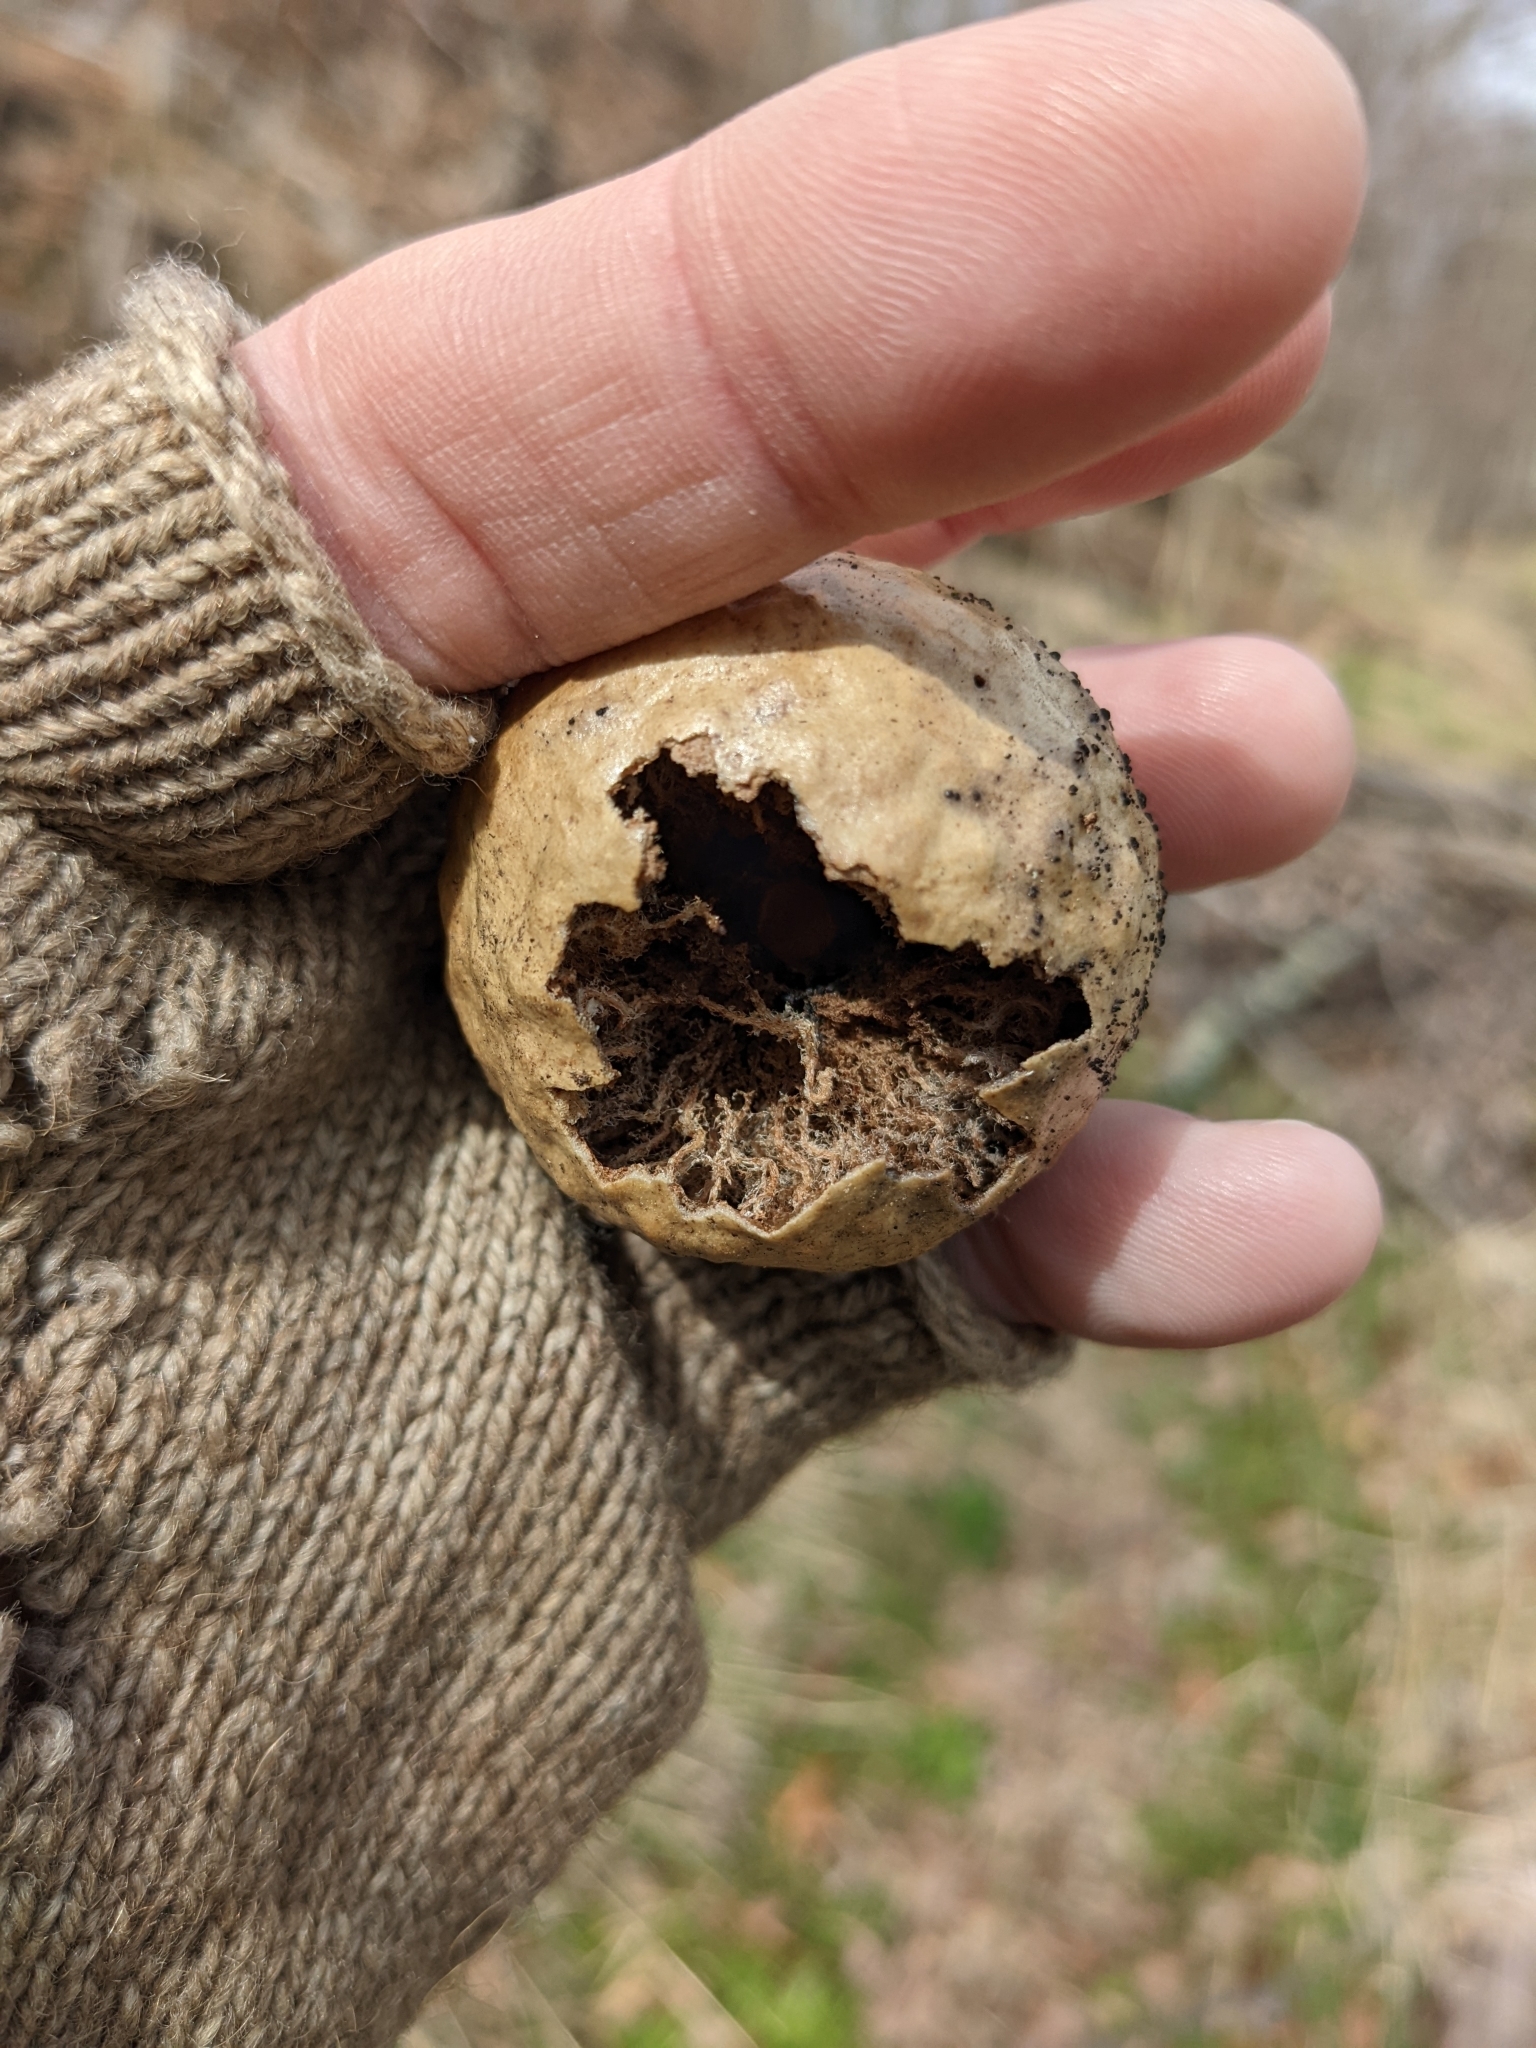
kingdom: Animalia
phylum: Arthropoda
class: Insecta
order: Hymenoptera
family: Cynipidae
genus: Amphibolips
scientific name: Amphibolips
